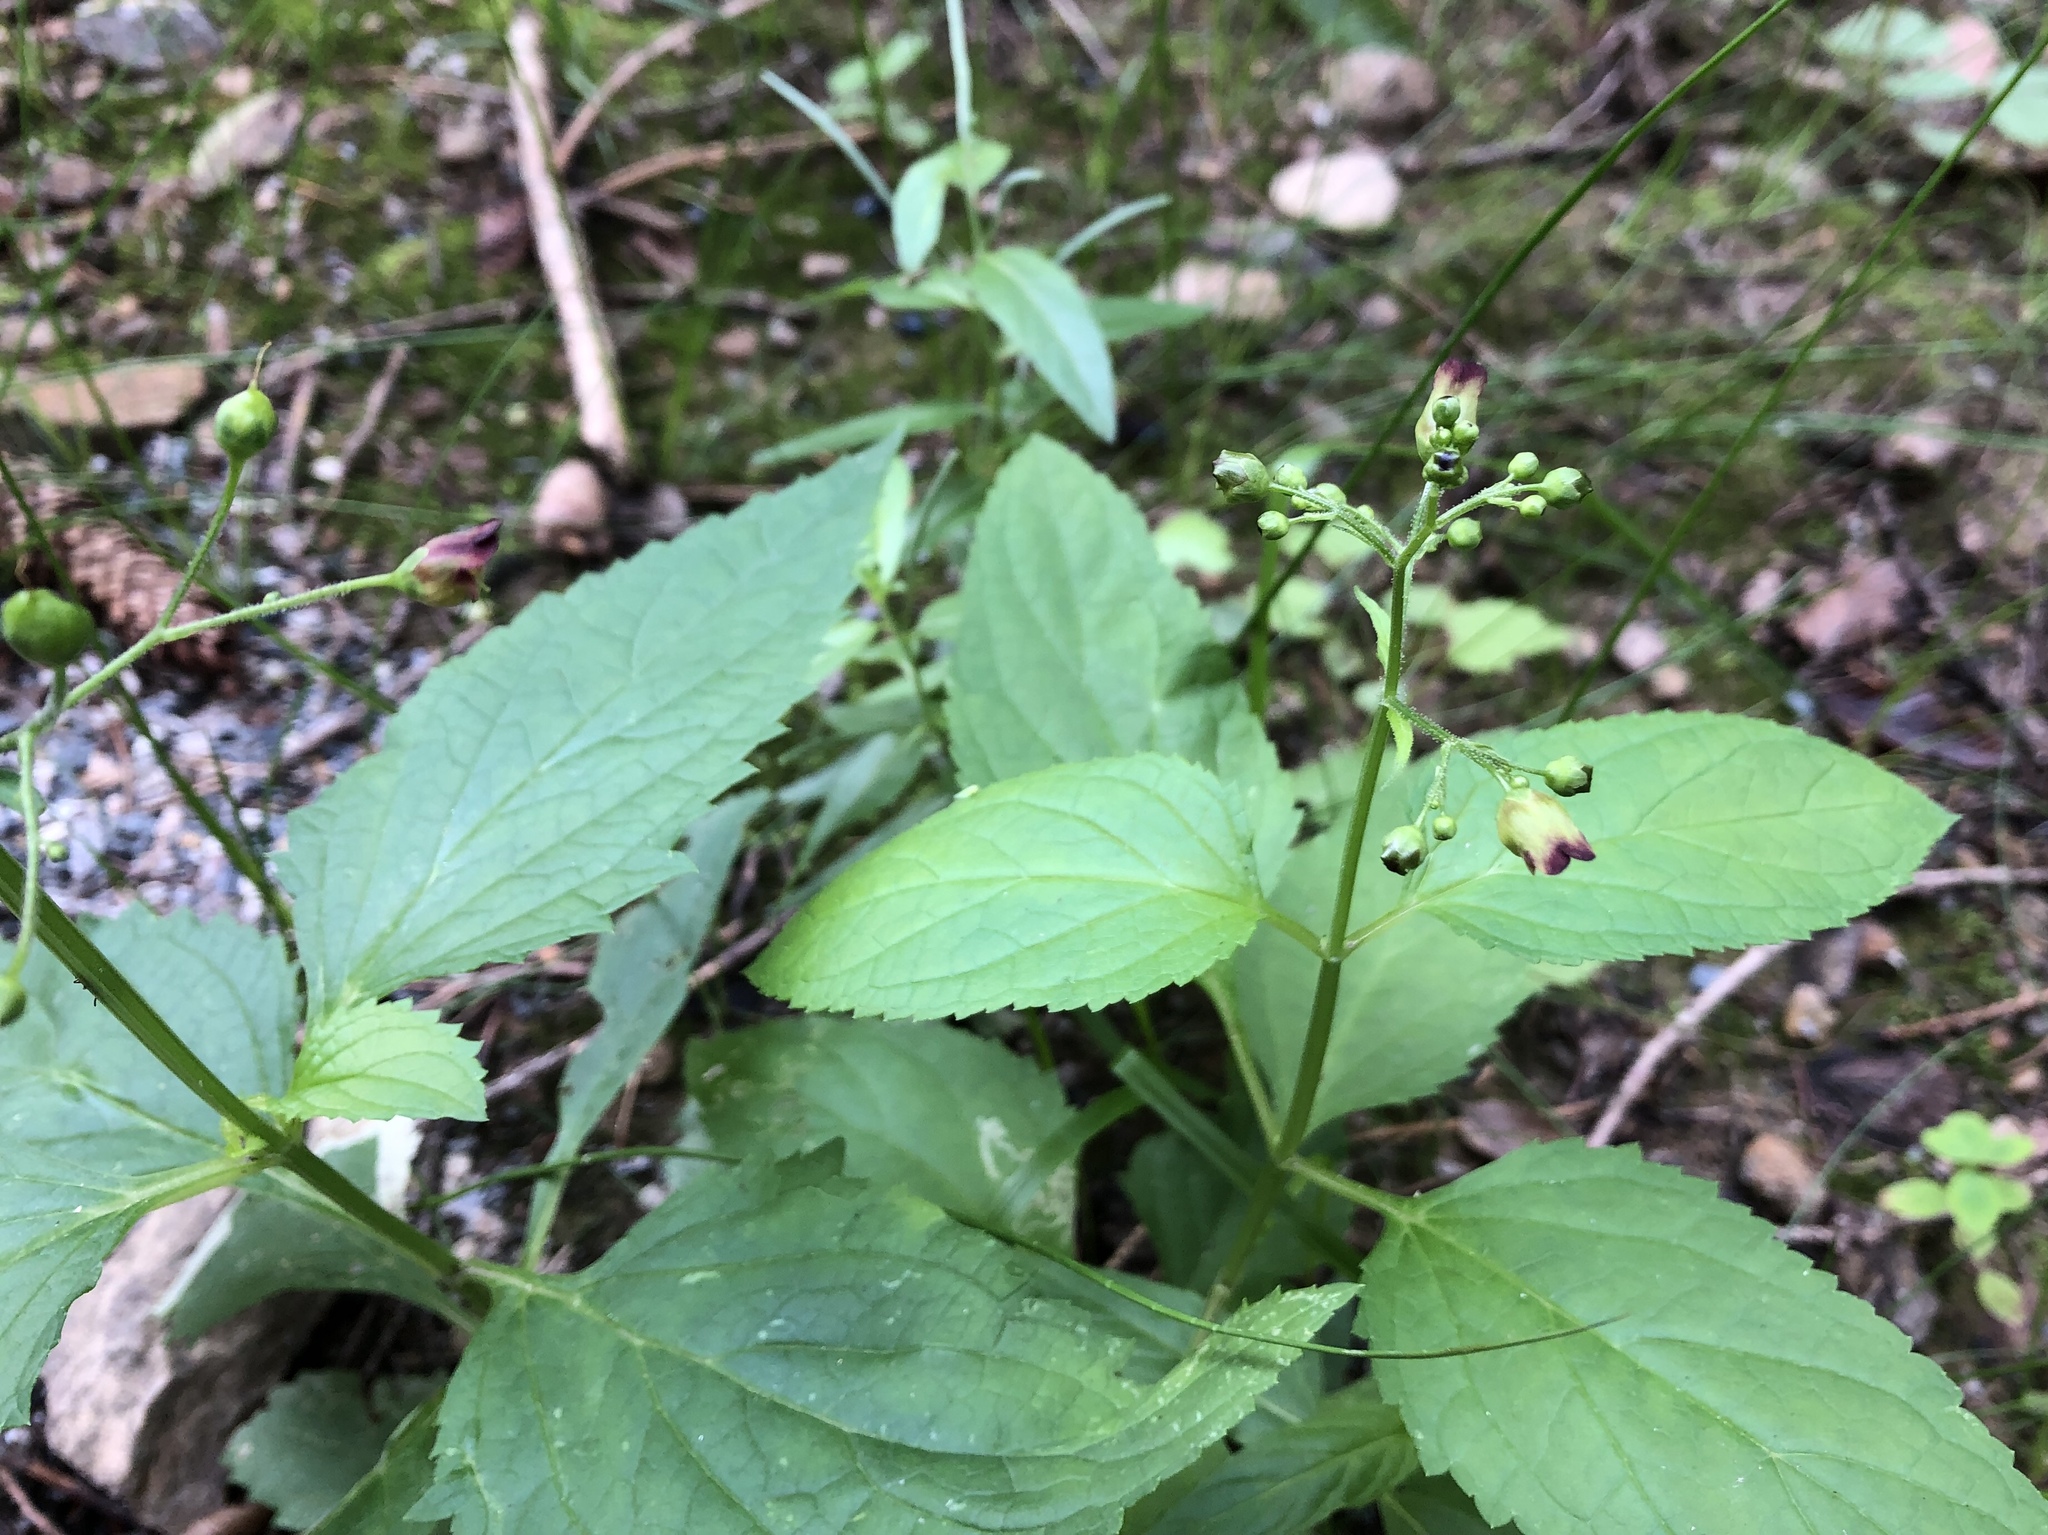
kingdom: Plantae
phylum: Tracheophyta
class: Magnoliopsida
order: Lamiales
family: Scrophulariaceae
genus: Scrophularia
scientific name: Scrophularia nodosa
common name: Common figwort
